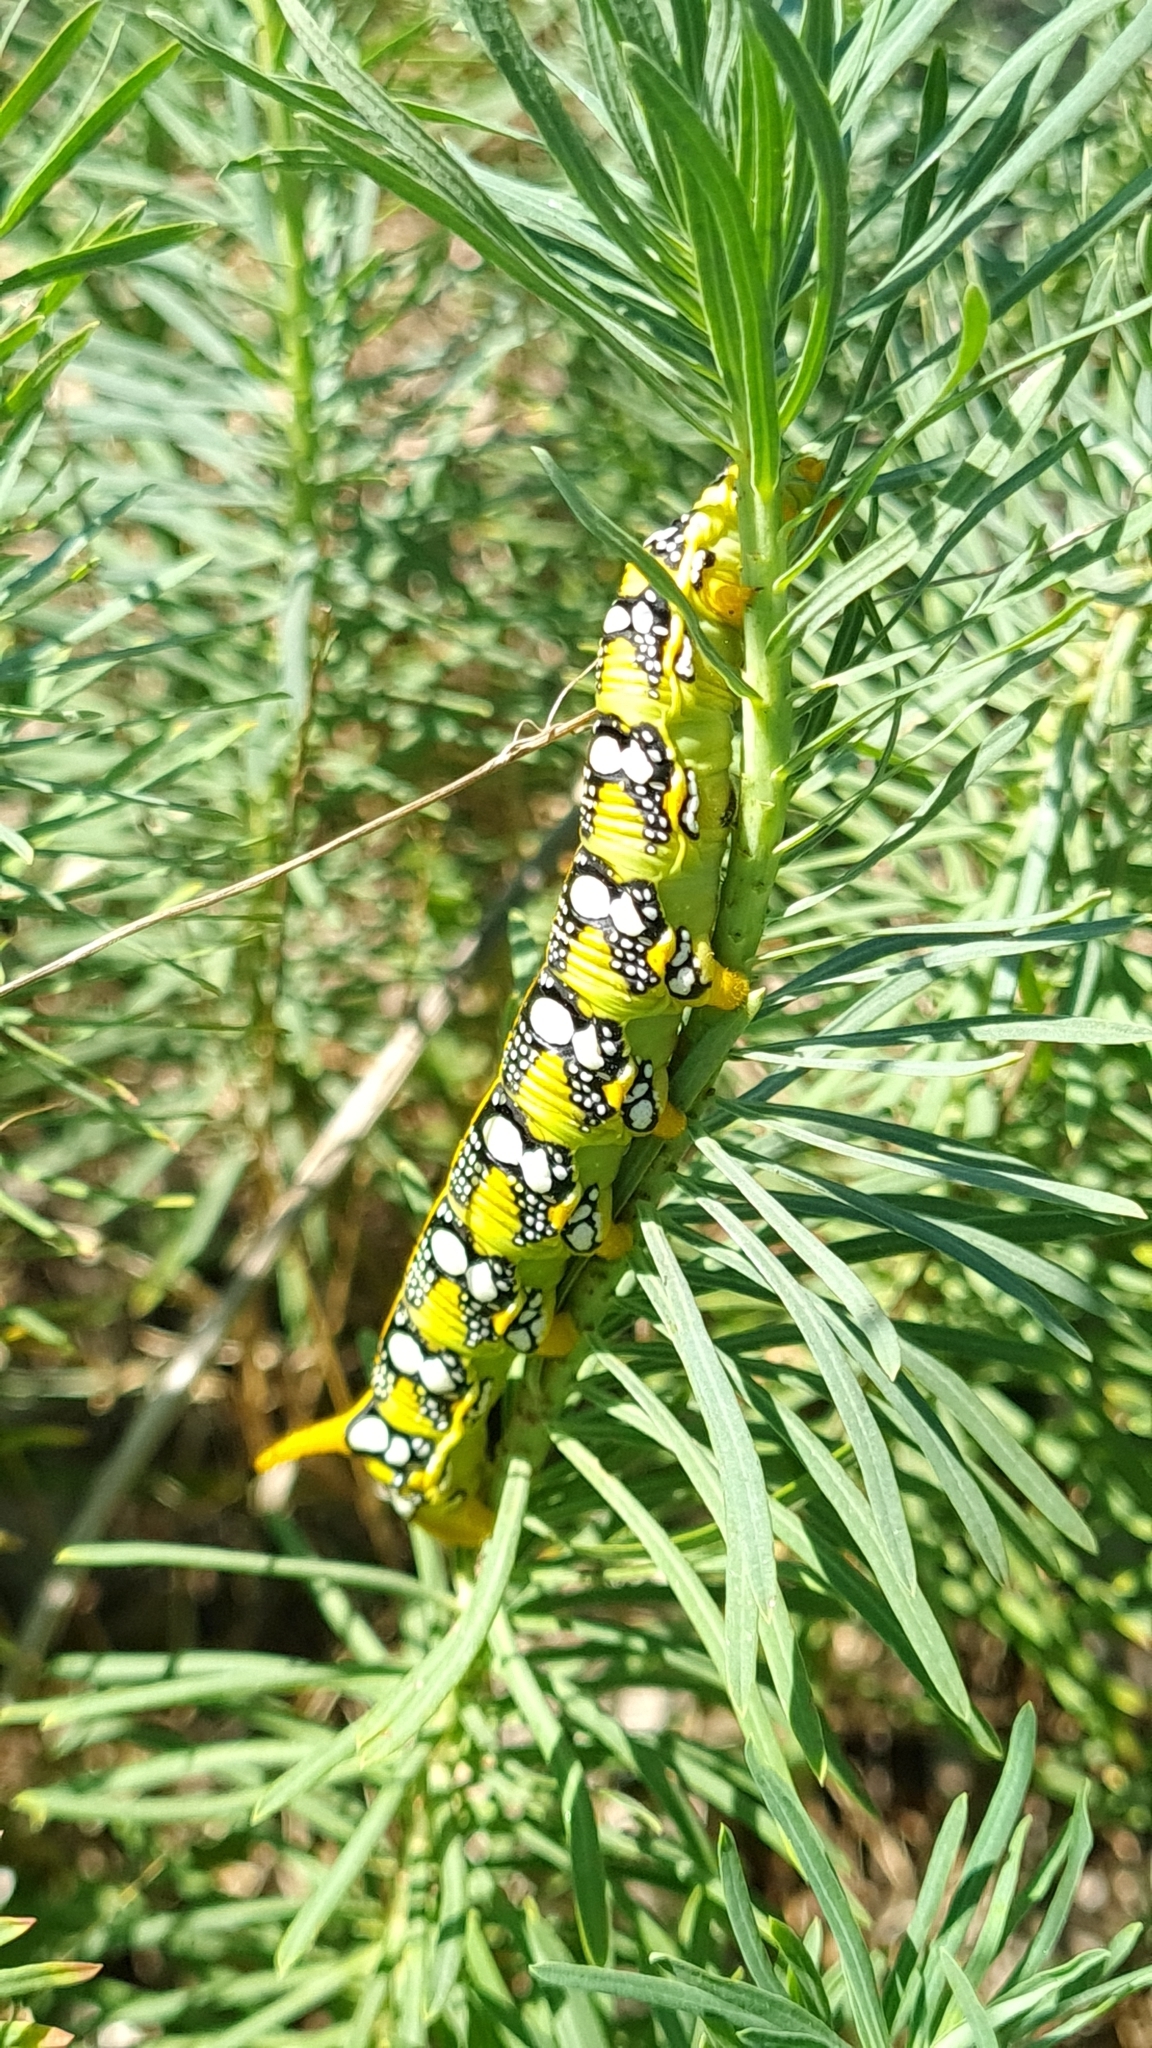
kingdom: Animalia
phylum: Arthropoda
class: Insecta
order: Lepidoptera
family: Sphingidae
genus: Hyles
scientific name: Hyles euphorbiae
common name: Spurge hawk-moth
